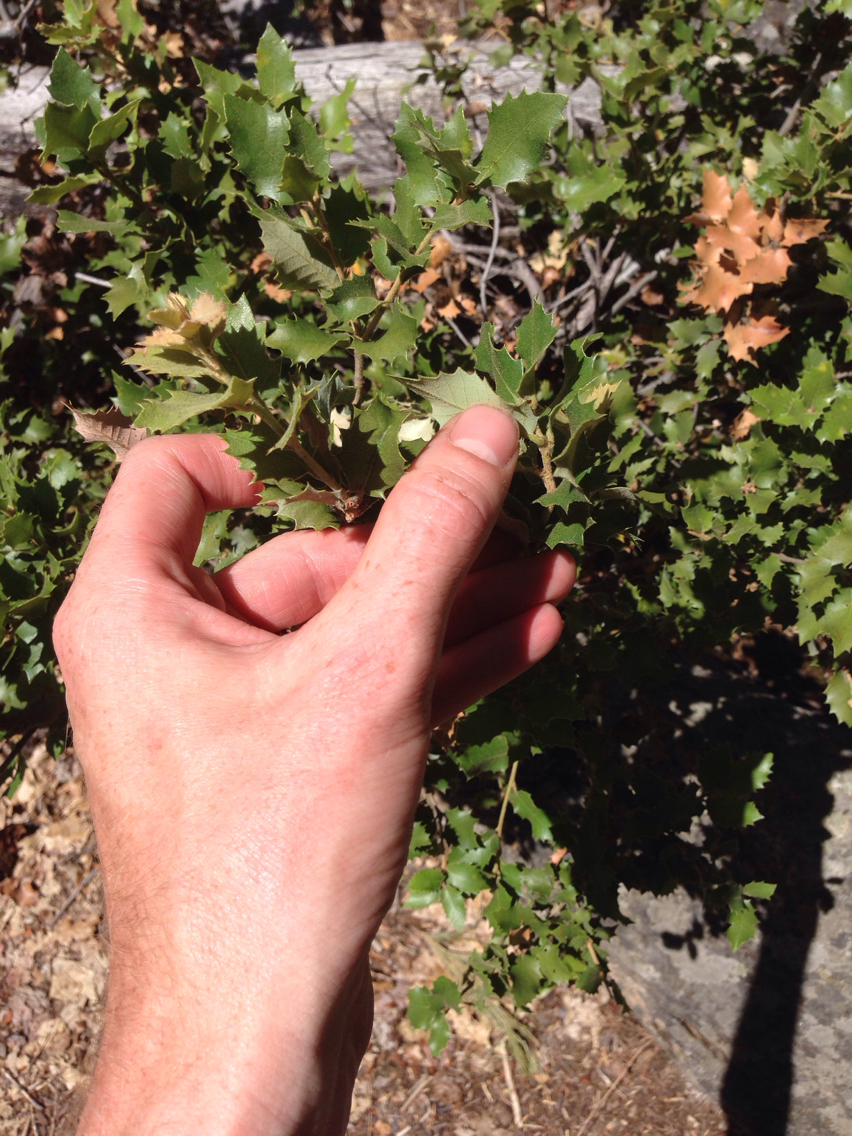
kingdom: Plantae
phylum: Tracheophyta
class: Magnoliopsida
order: Fagales
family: Fagaceae
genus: Quercus
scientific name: Quercus chrysolepis
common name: Canyon live oak
